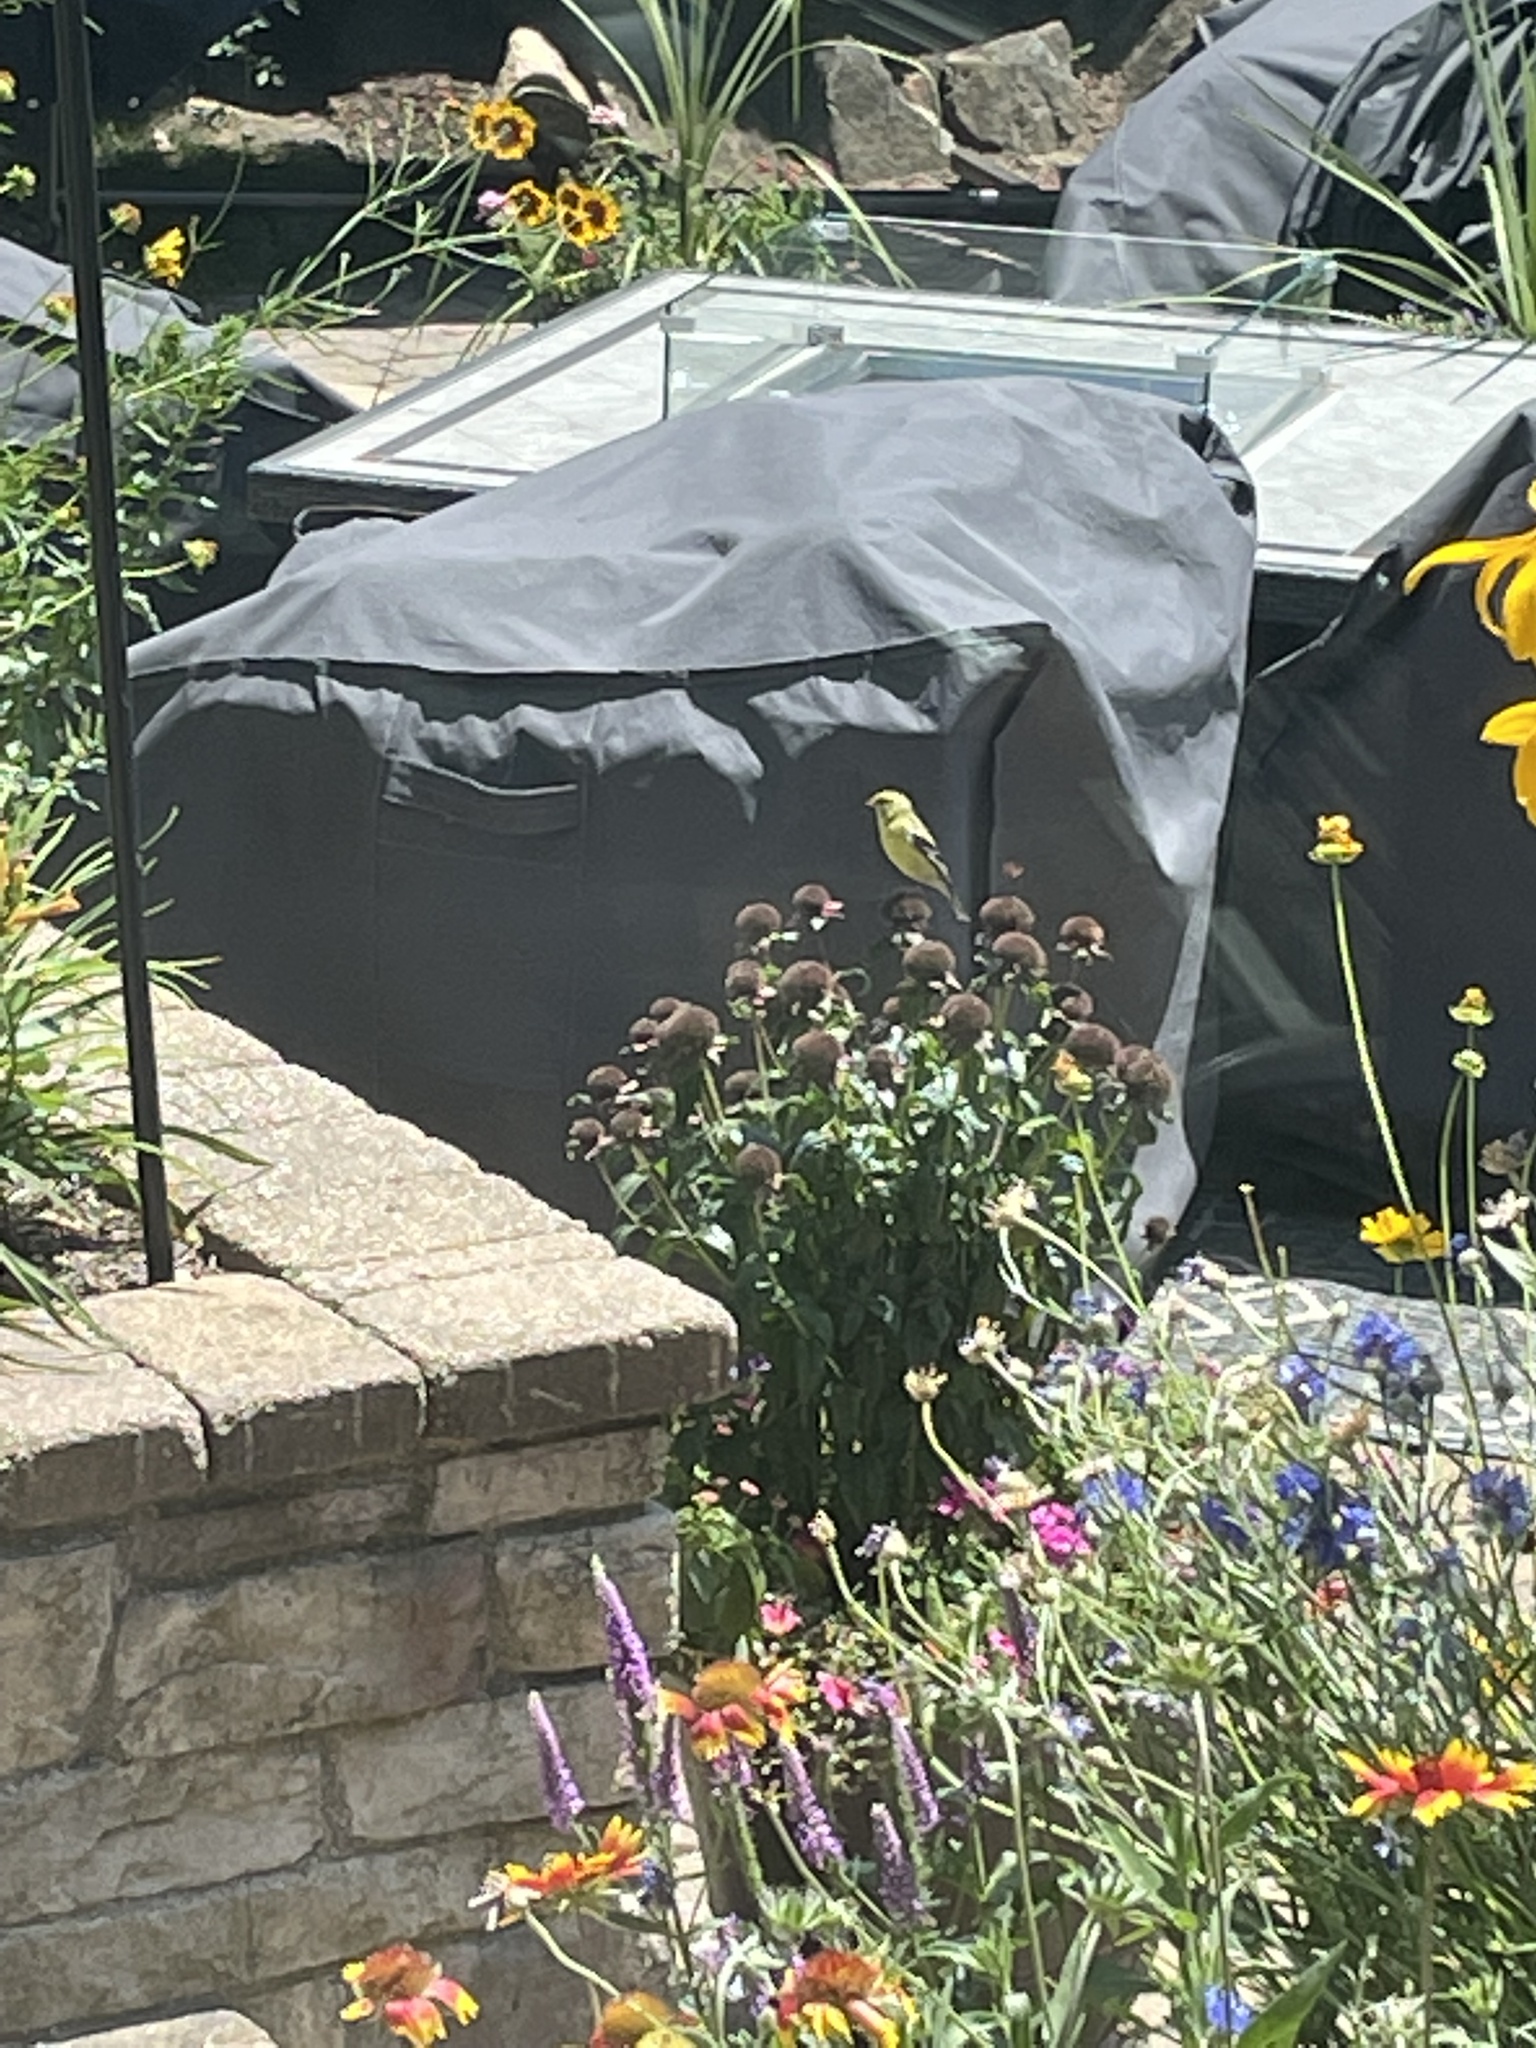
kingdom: Animalia
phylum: Chordata
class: Aves
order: Passeriformes
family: Fringillidae
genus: Spinus
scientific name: Spinus tristis
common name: American goldfinch
